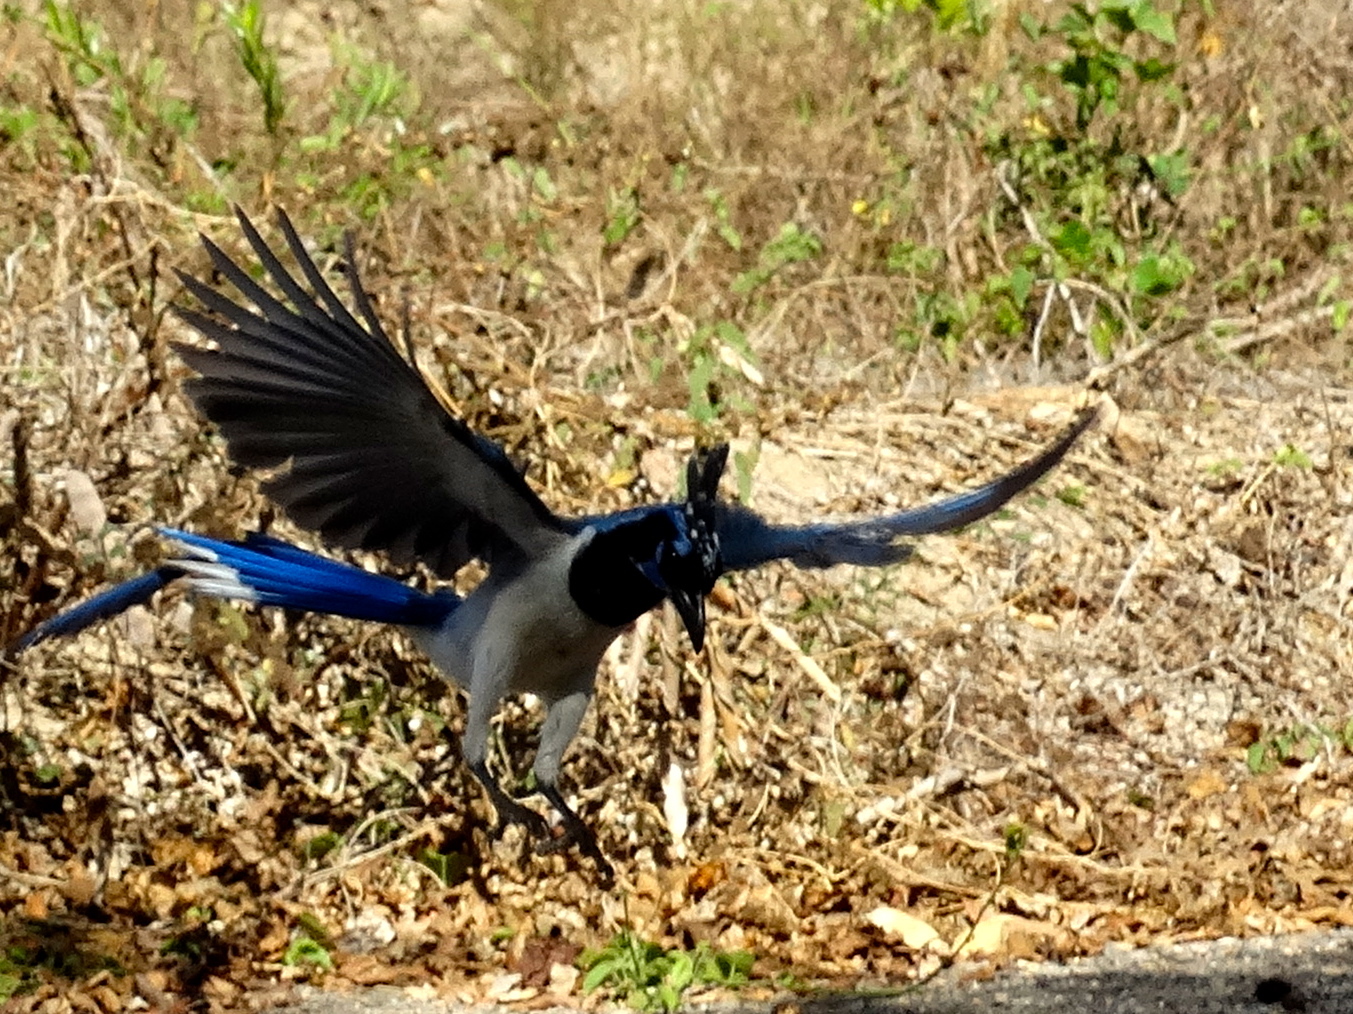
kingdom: Animalia
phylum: Chordata
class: Aves
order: Passeriformes
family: Corvidae
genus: Calocitta
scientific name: Calocitta colliei
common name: Black-throated magpie-jay
